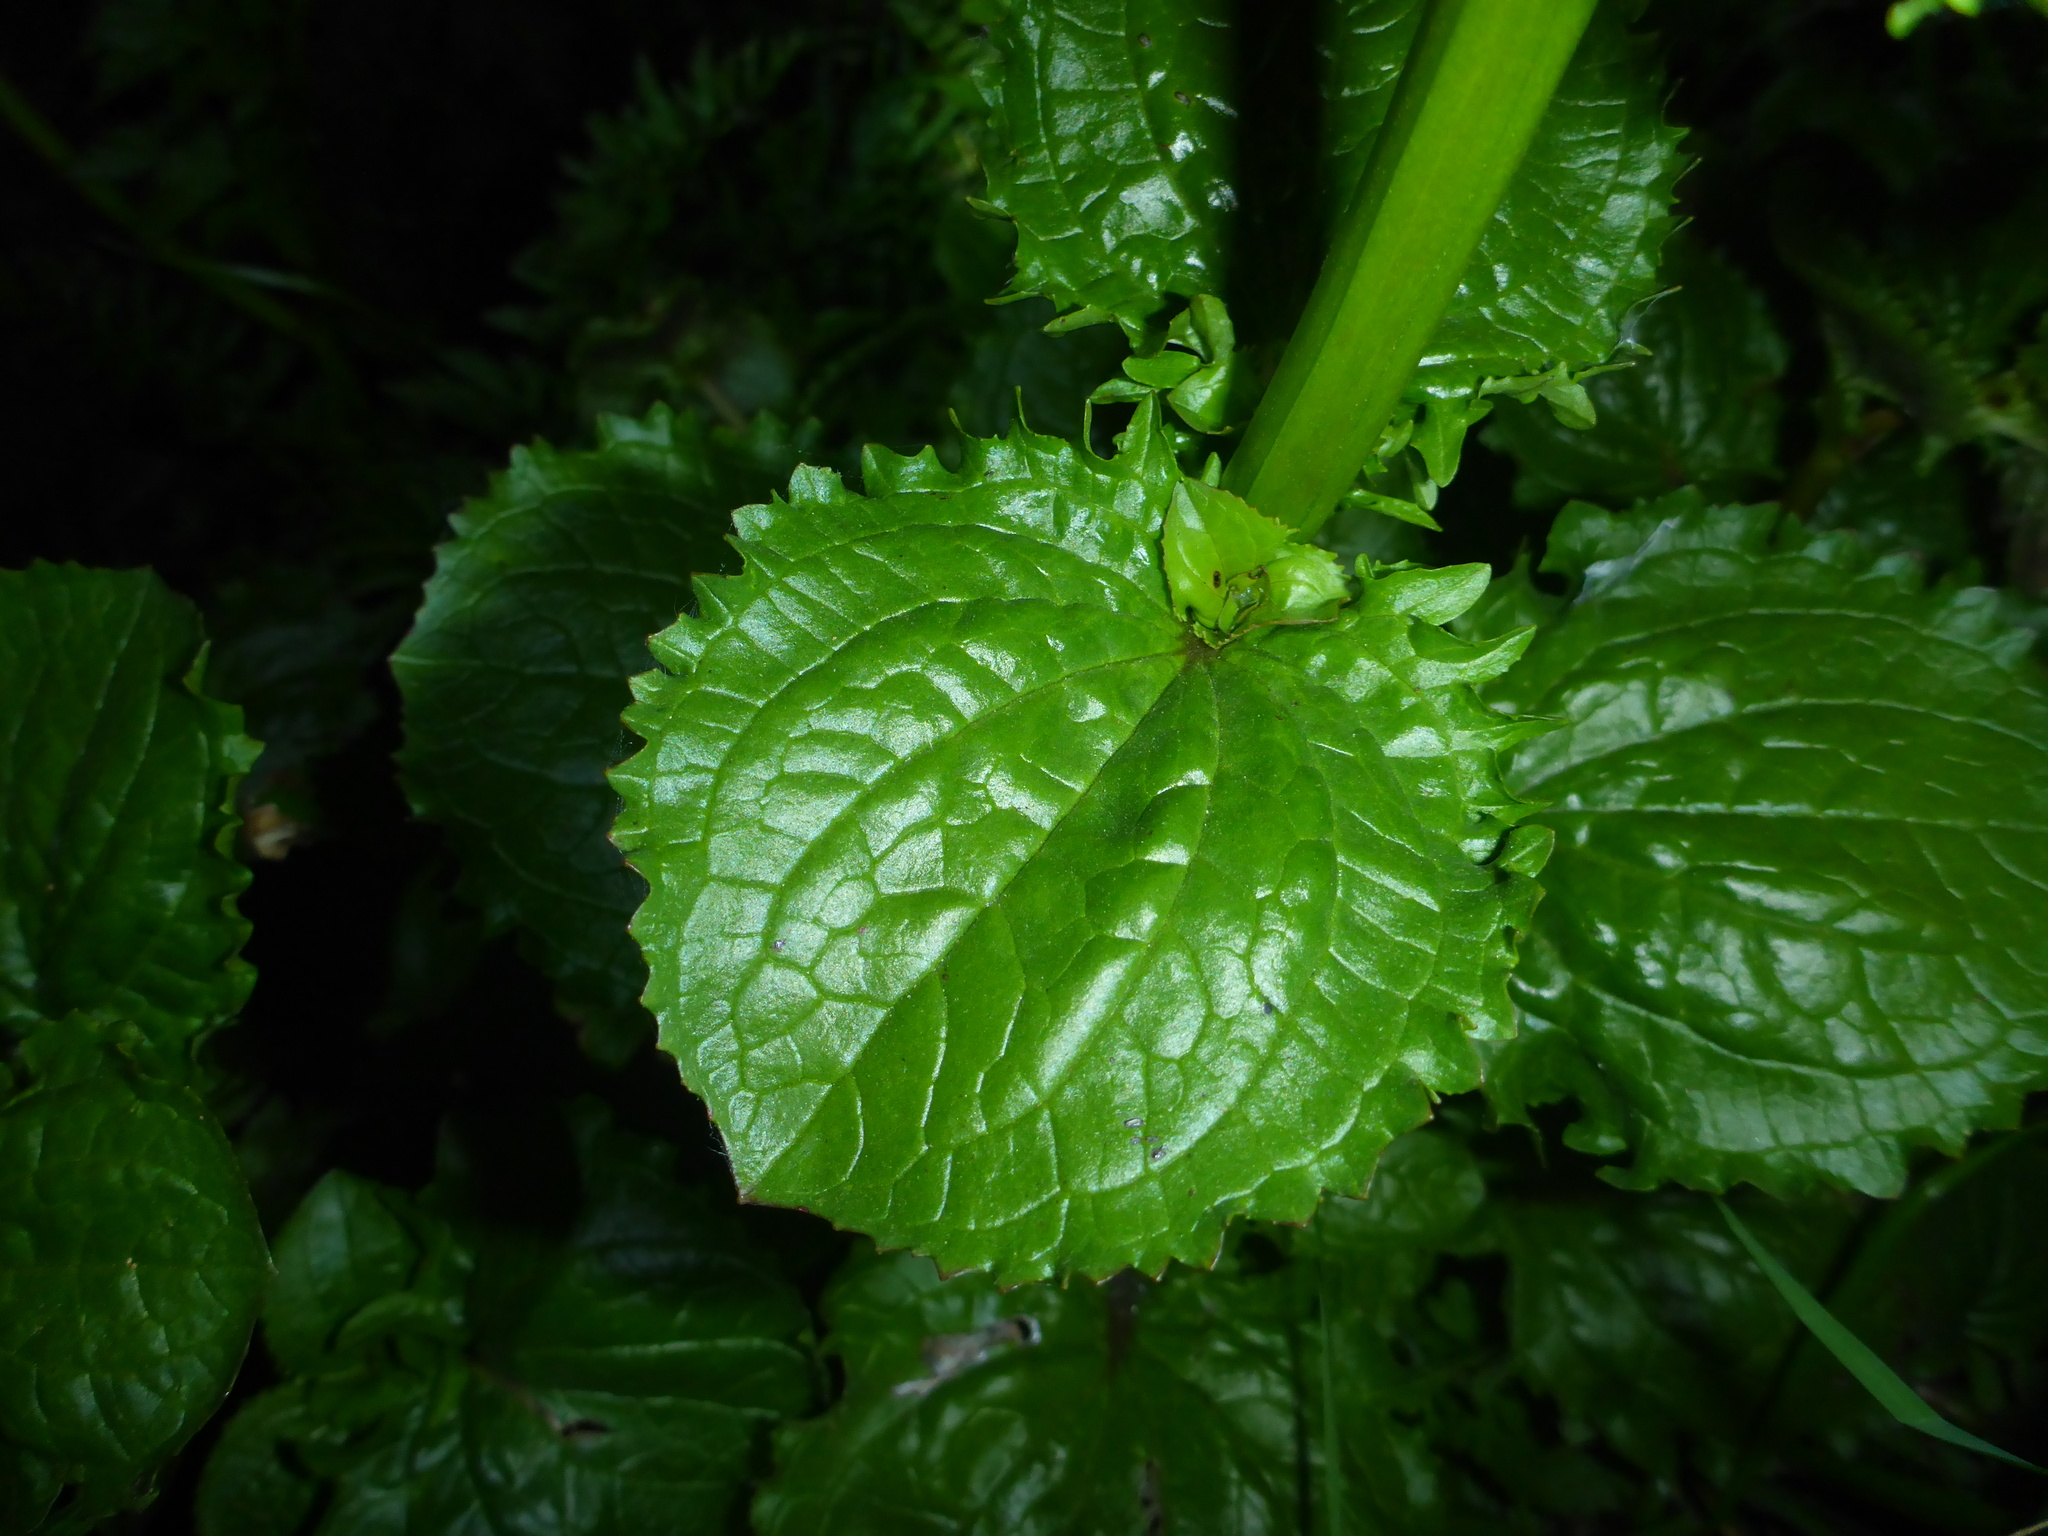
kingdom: Plantae
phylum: Tracheophyta
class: Magnoliopsida
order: Lamiales
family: Phrymaceae
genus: Erythranthe
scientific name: Erythranthe guttata
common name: Monkeyflower
